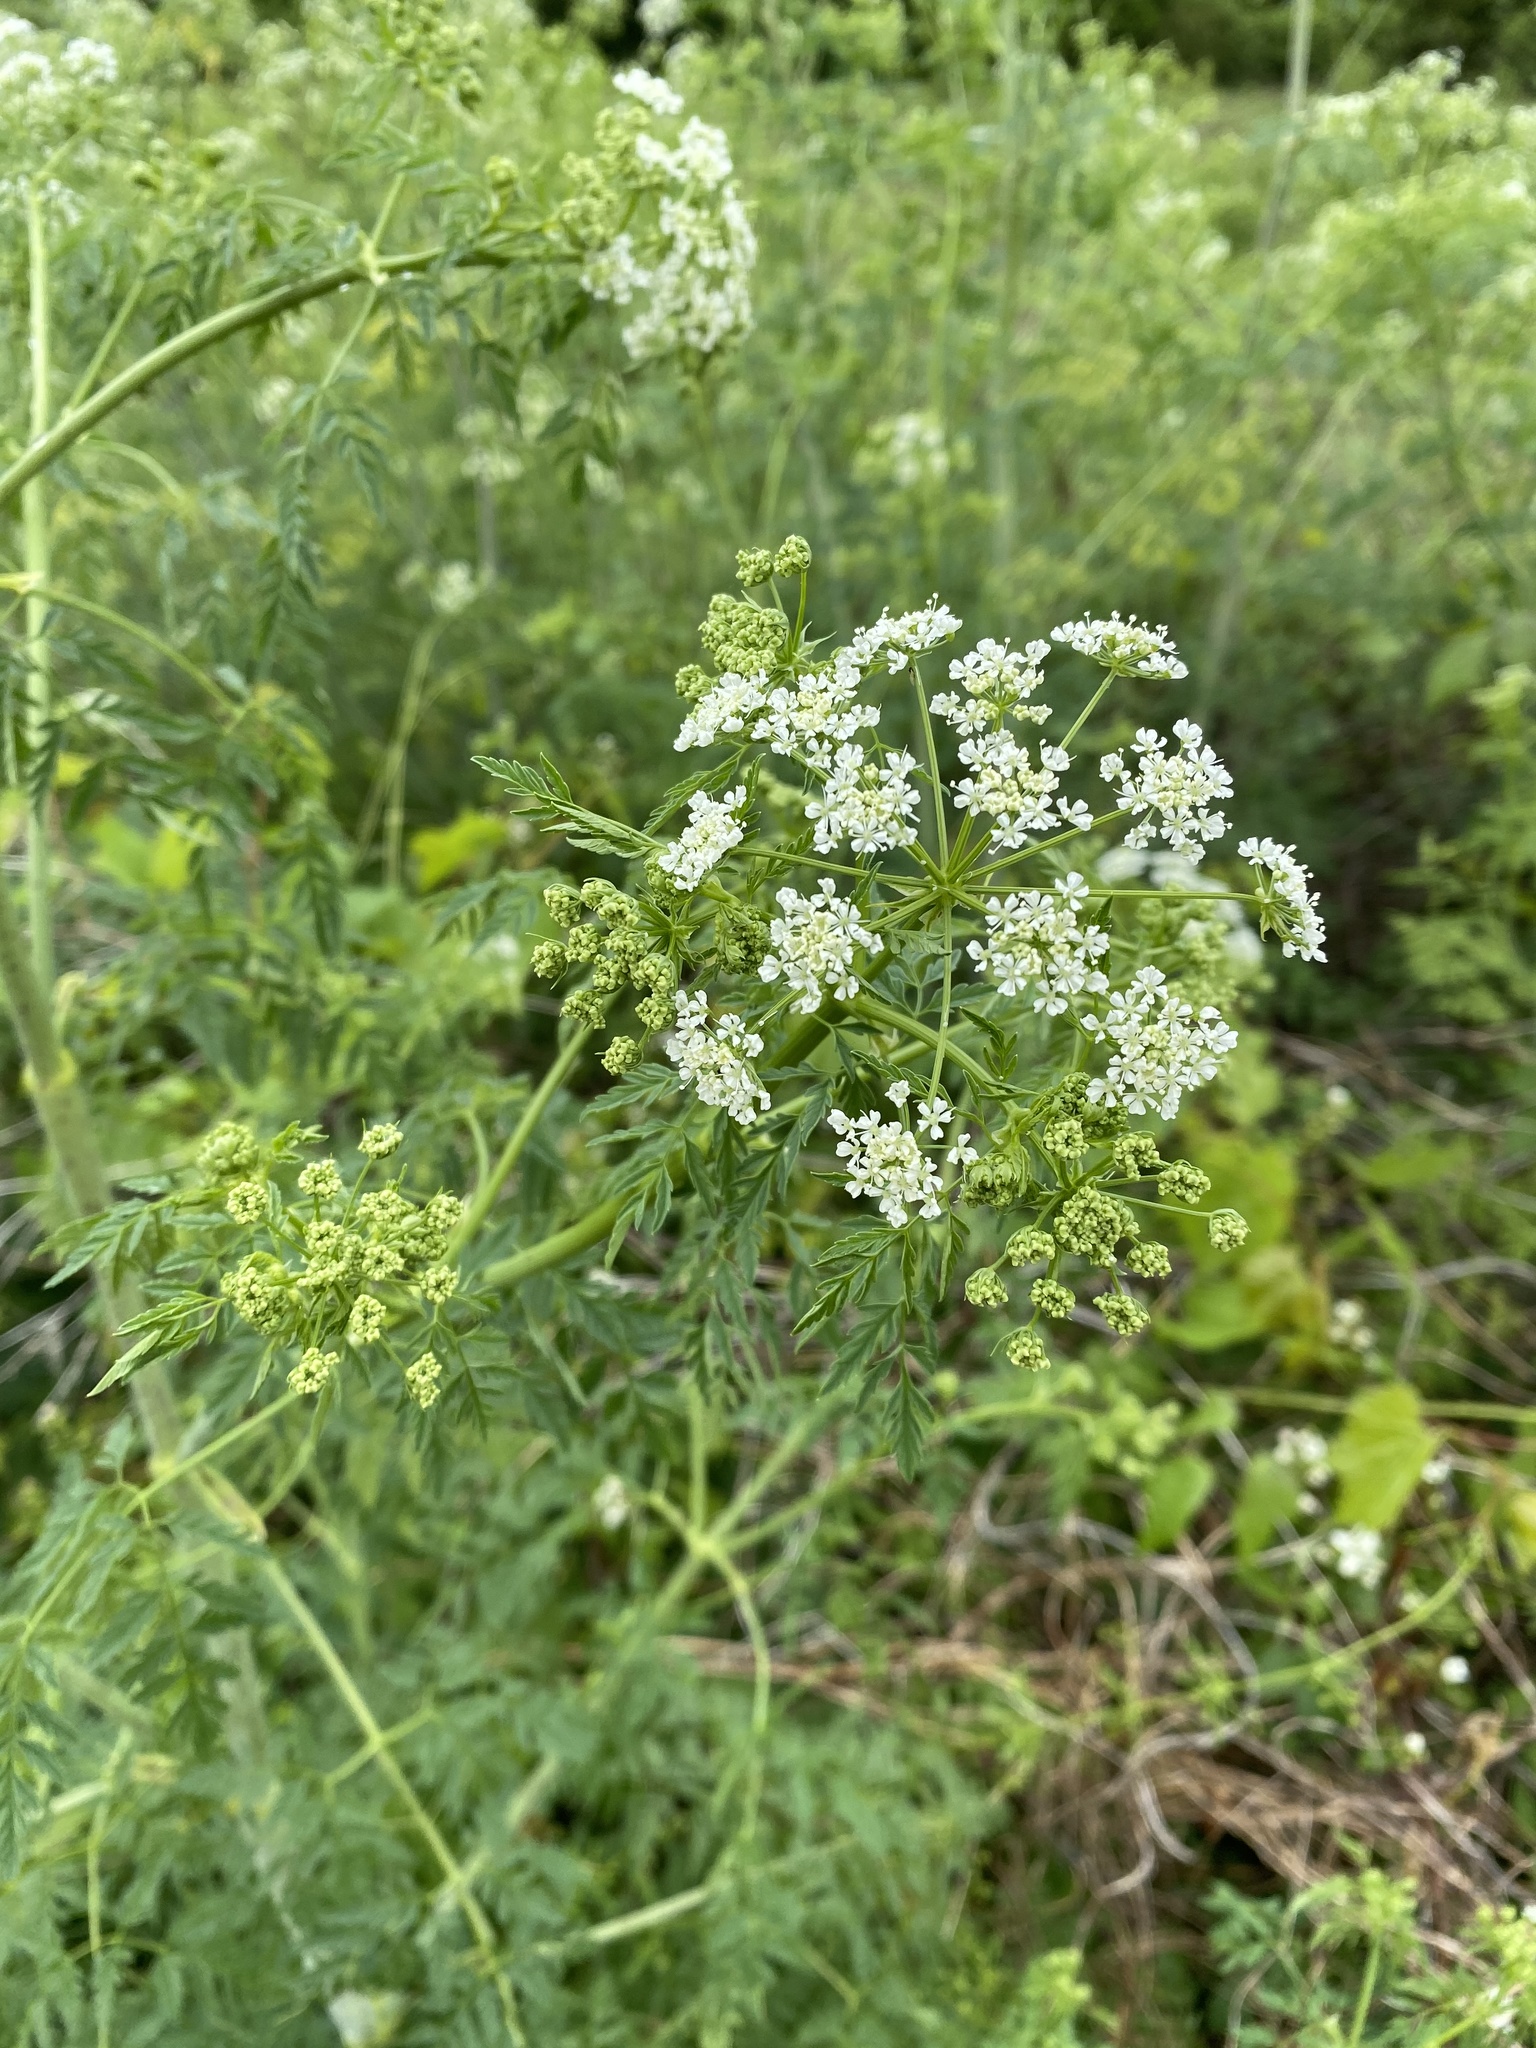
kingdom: Plantae
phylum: Tracheophyta
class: Magnoliopsida
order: Apiales
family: Apiaceae
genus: Conium
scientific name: Conium maculatum
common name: Hemlock
